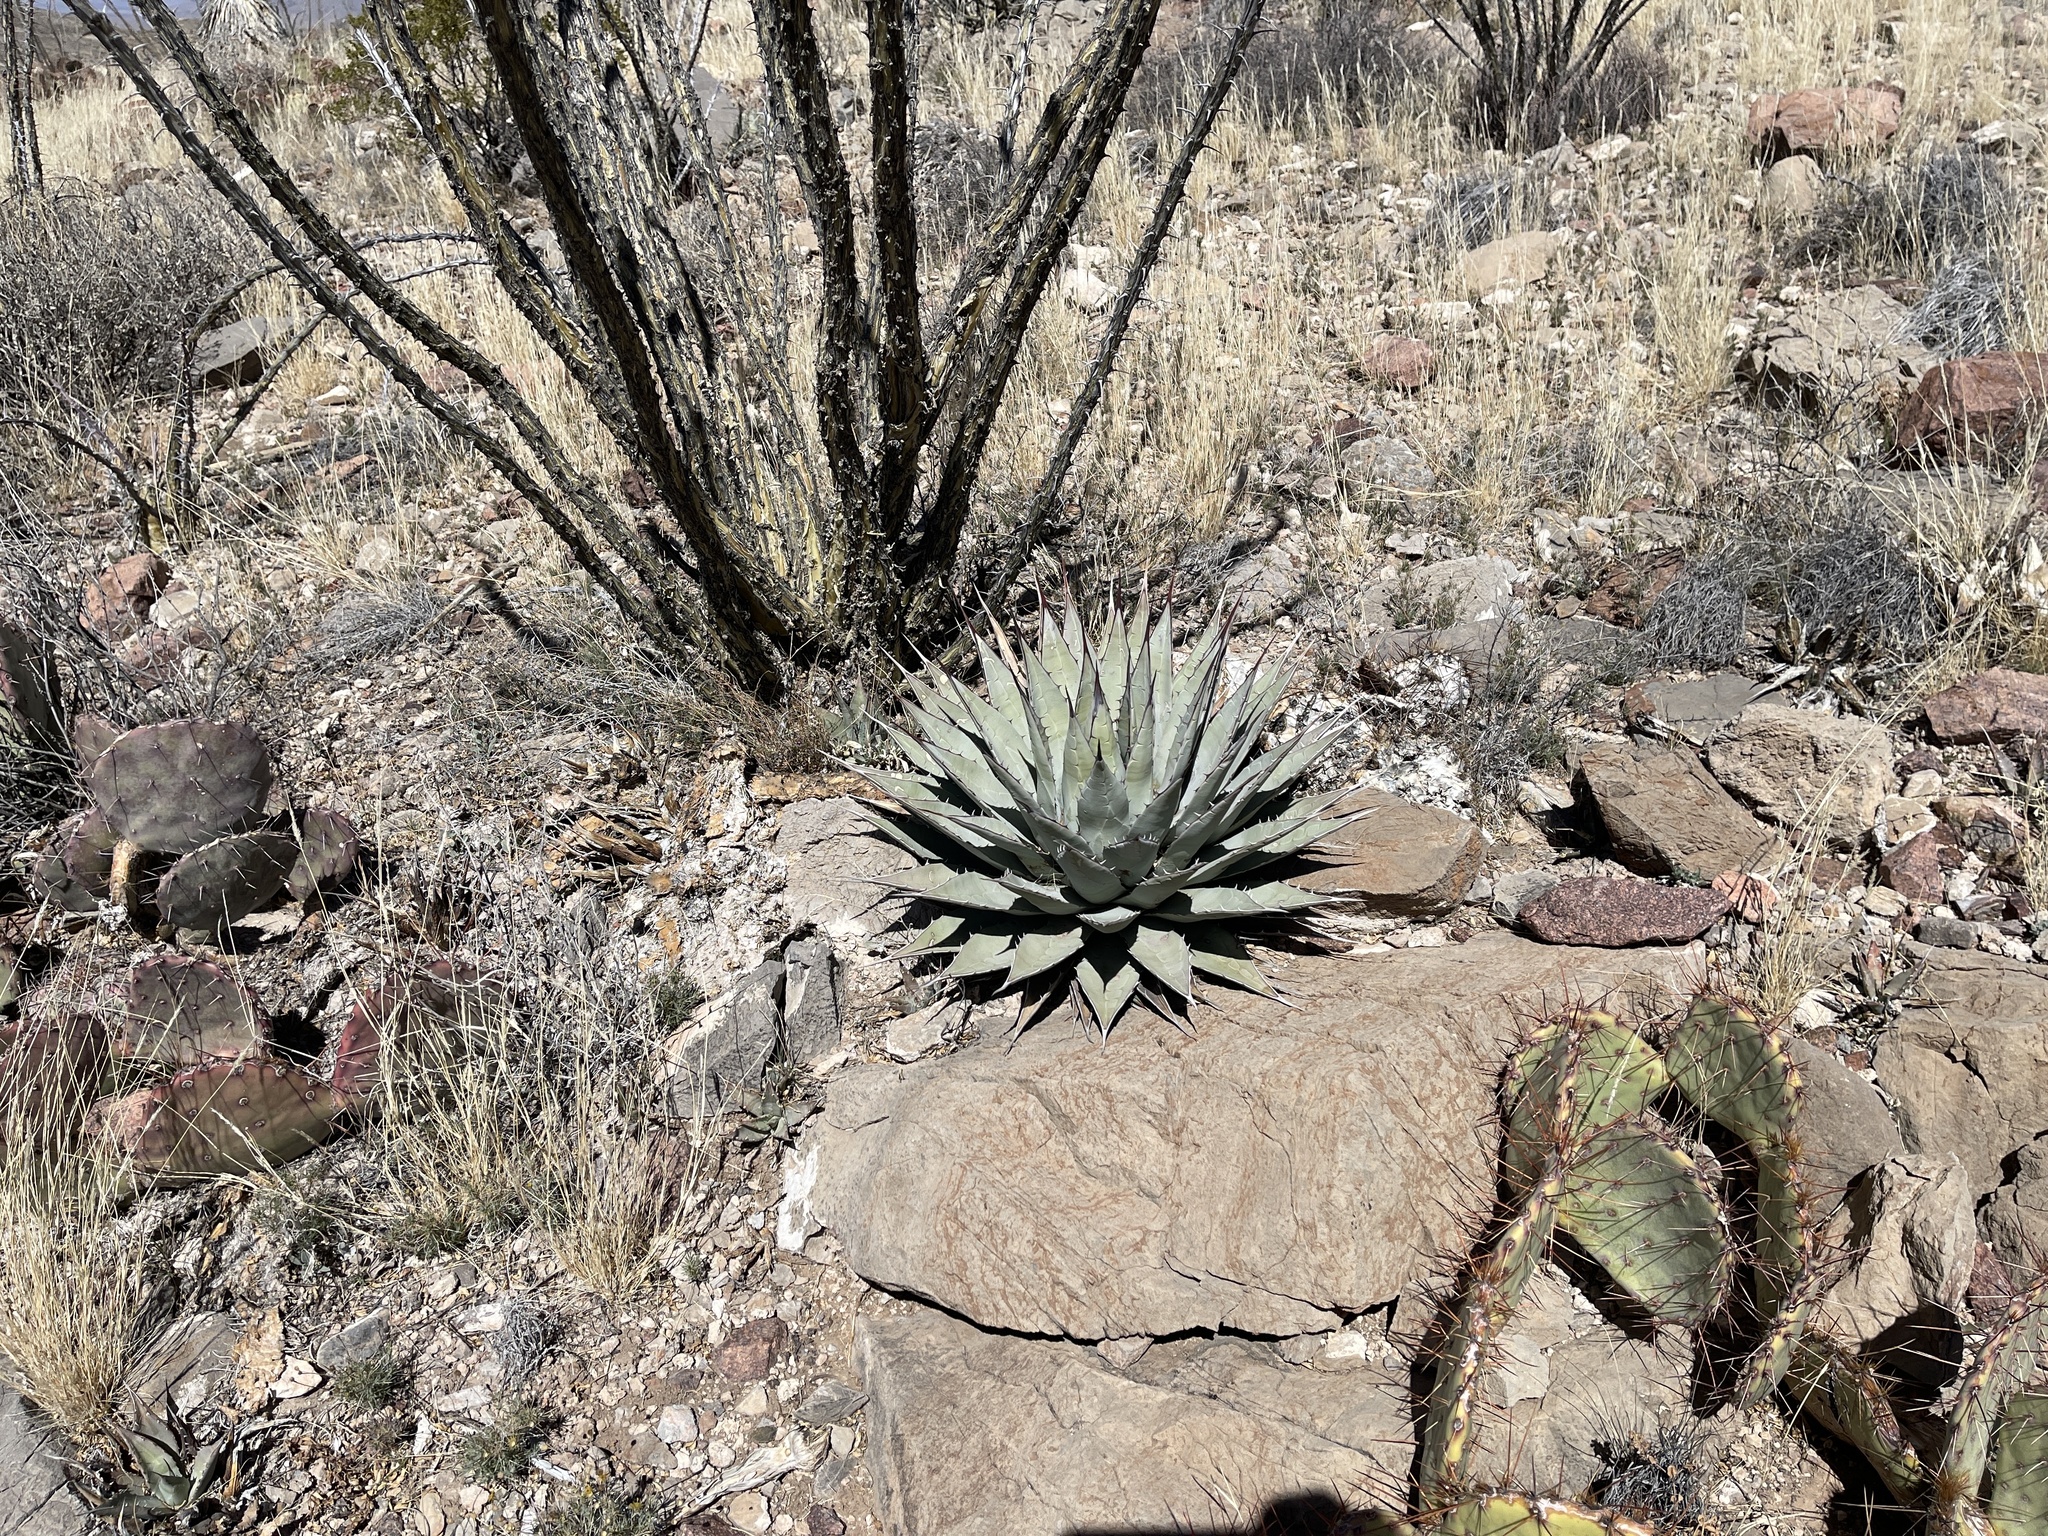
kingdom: Plantae
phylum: Tracheophyta
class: Liliopsida
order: Asparagales
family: Asparagaceae
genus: Agave
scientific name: Agave parryi
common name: Parry's agave
